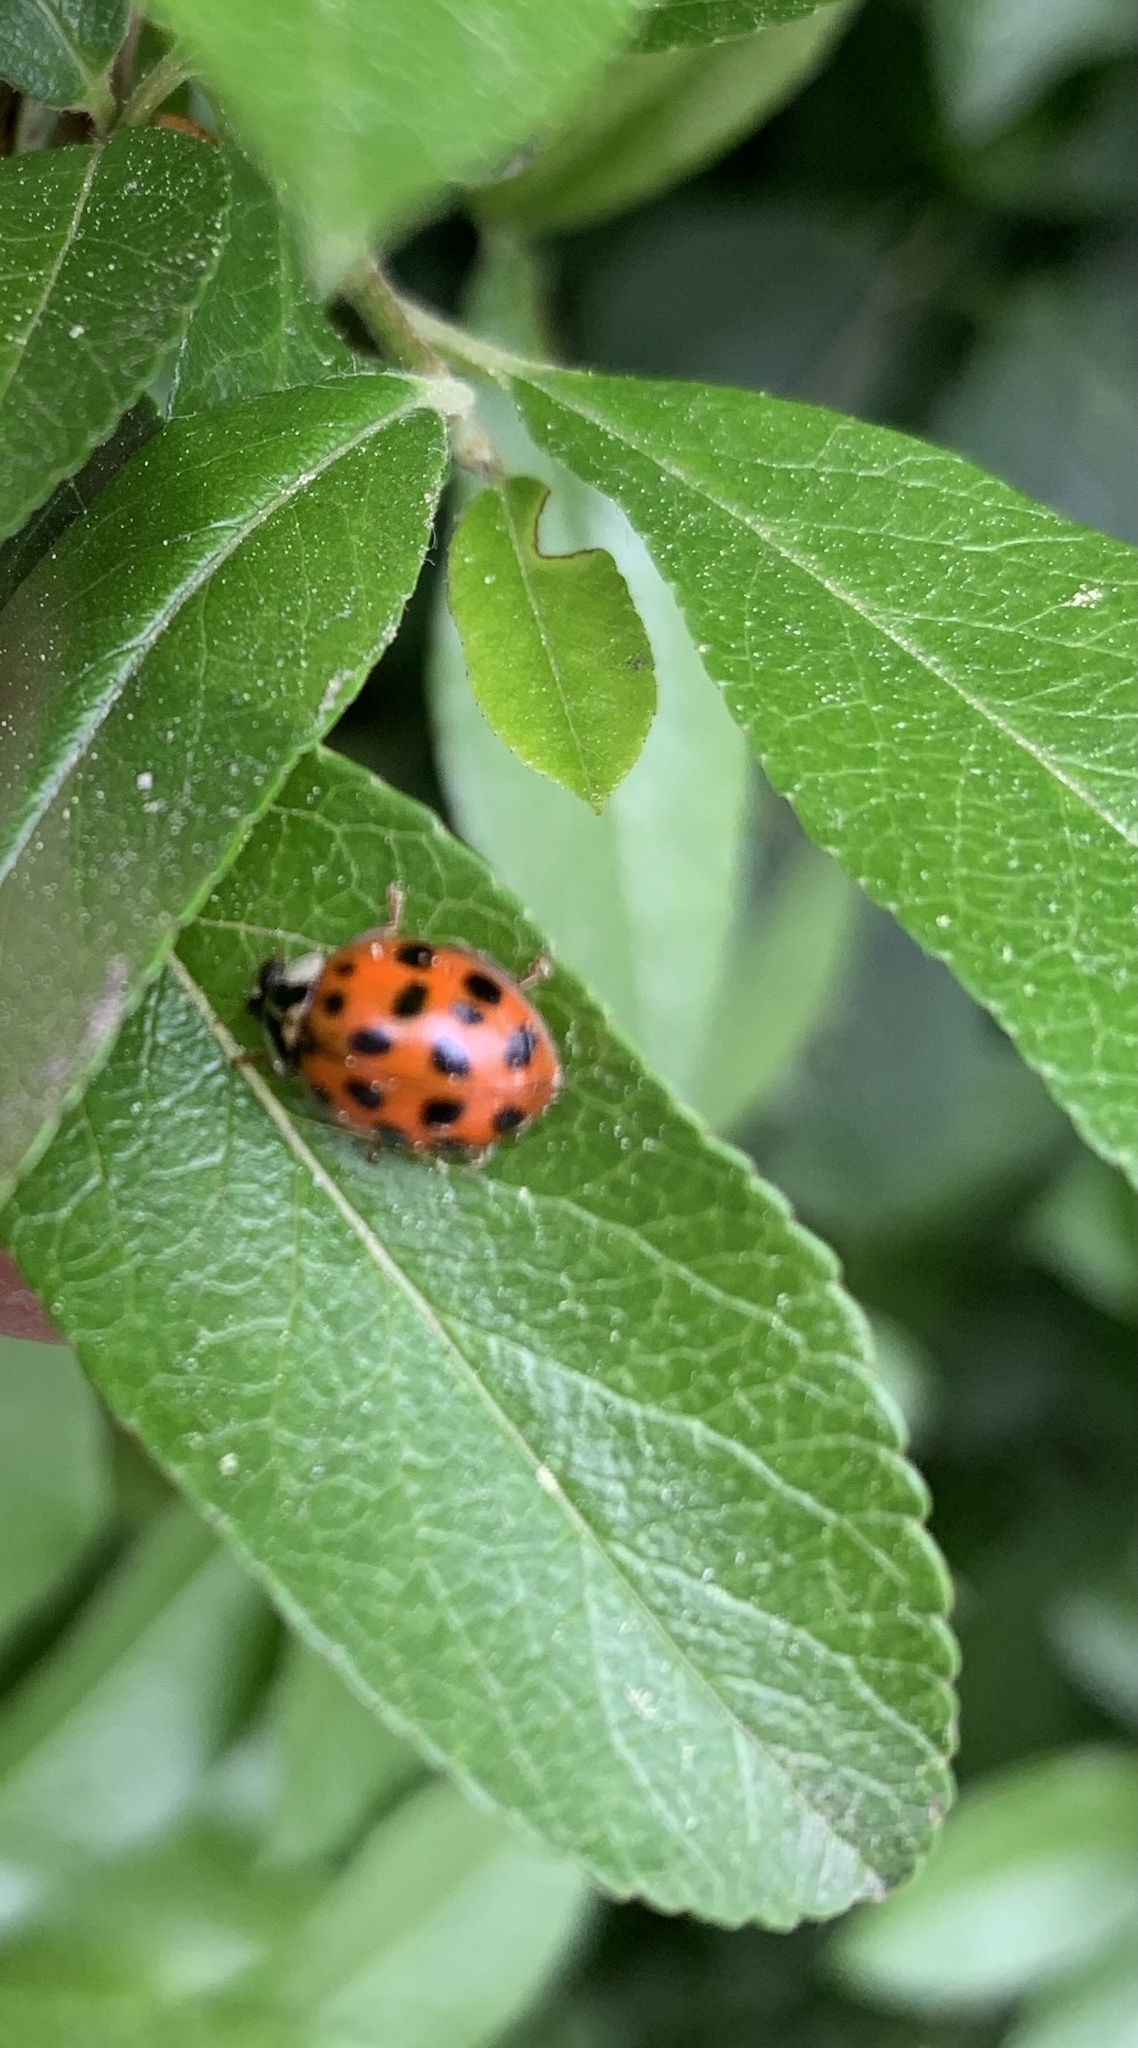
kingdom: Animalia
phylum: Arthropoda
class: Insecta
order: Coleoptera
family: Coccinellidae
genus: Harmonia
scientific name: Harmonia axyridis
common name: Harlequin ladybird
